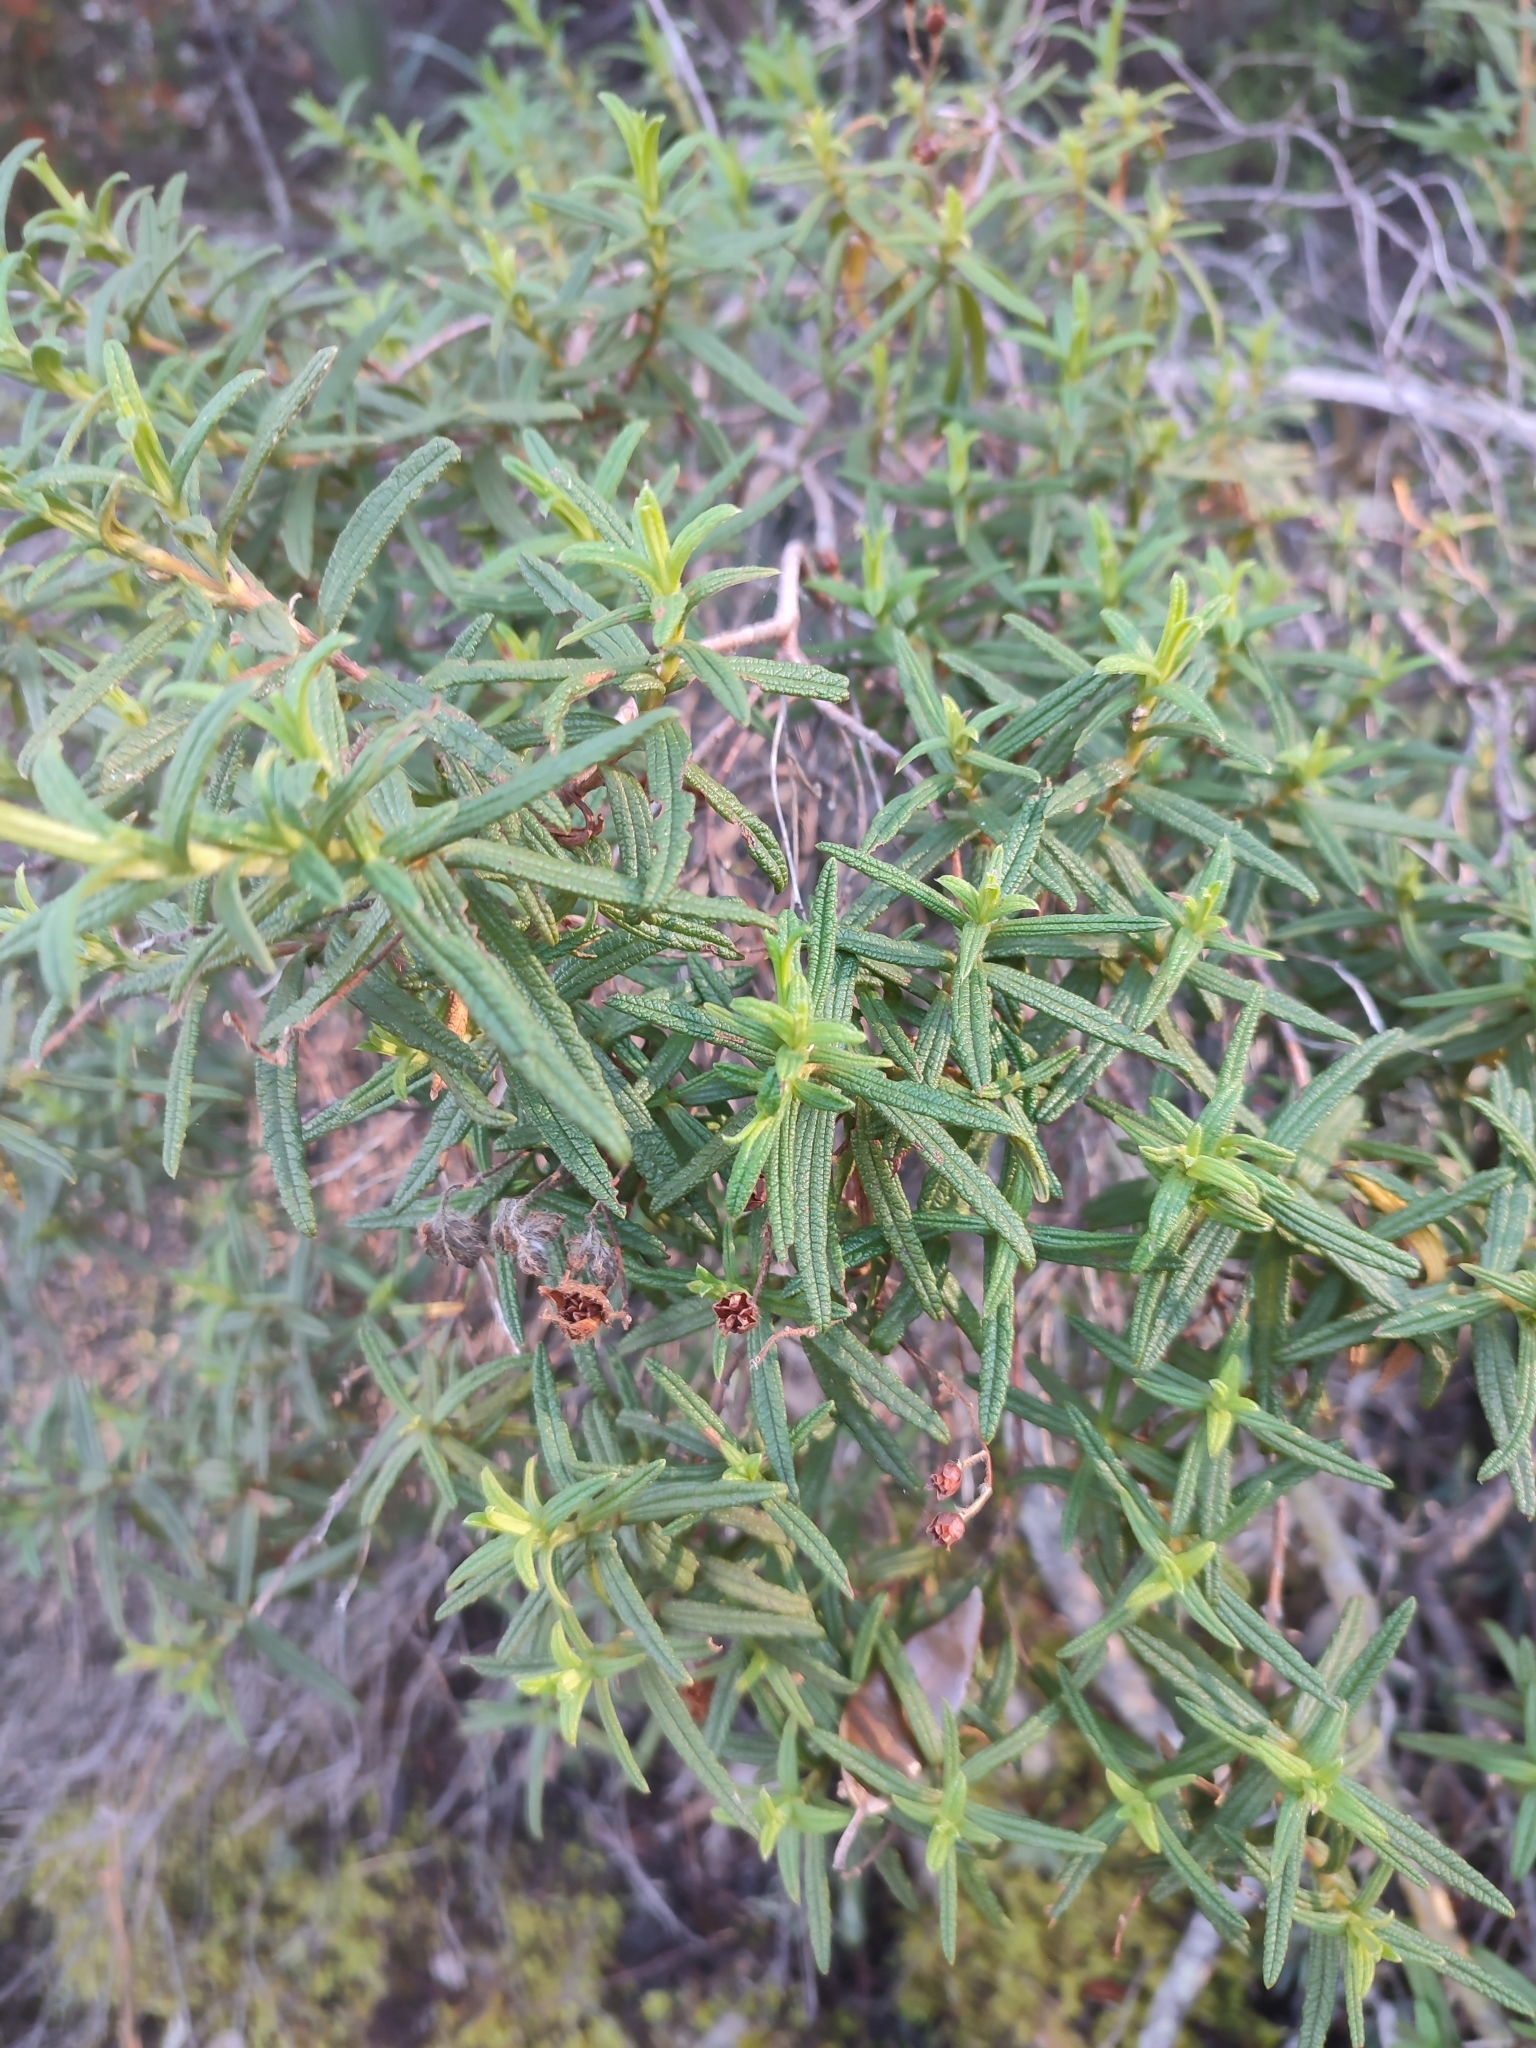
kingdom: Plantae
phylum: Tracheophyta
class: Magnoliopsida
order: Malvales
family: Cistaceae
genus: Cistus
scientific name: Cistus monspeliensis
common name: Montpelier cistus
